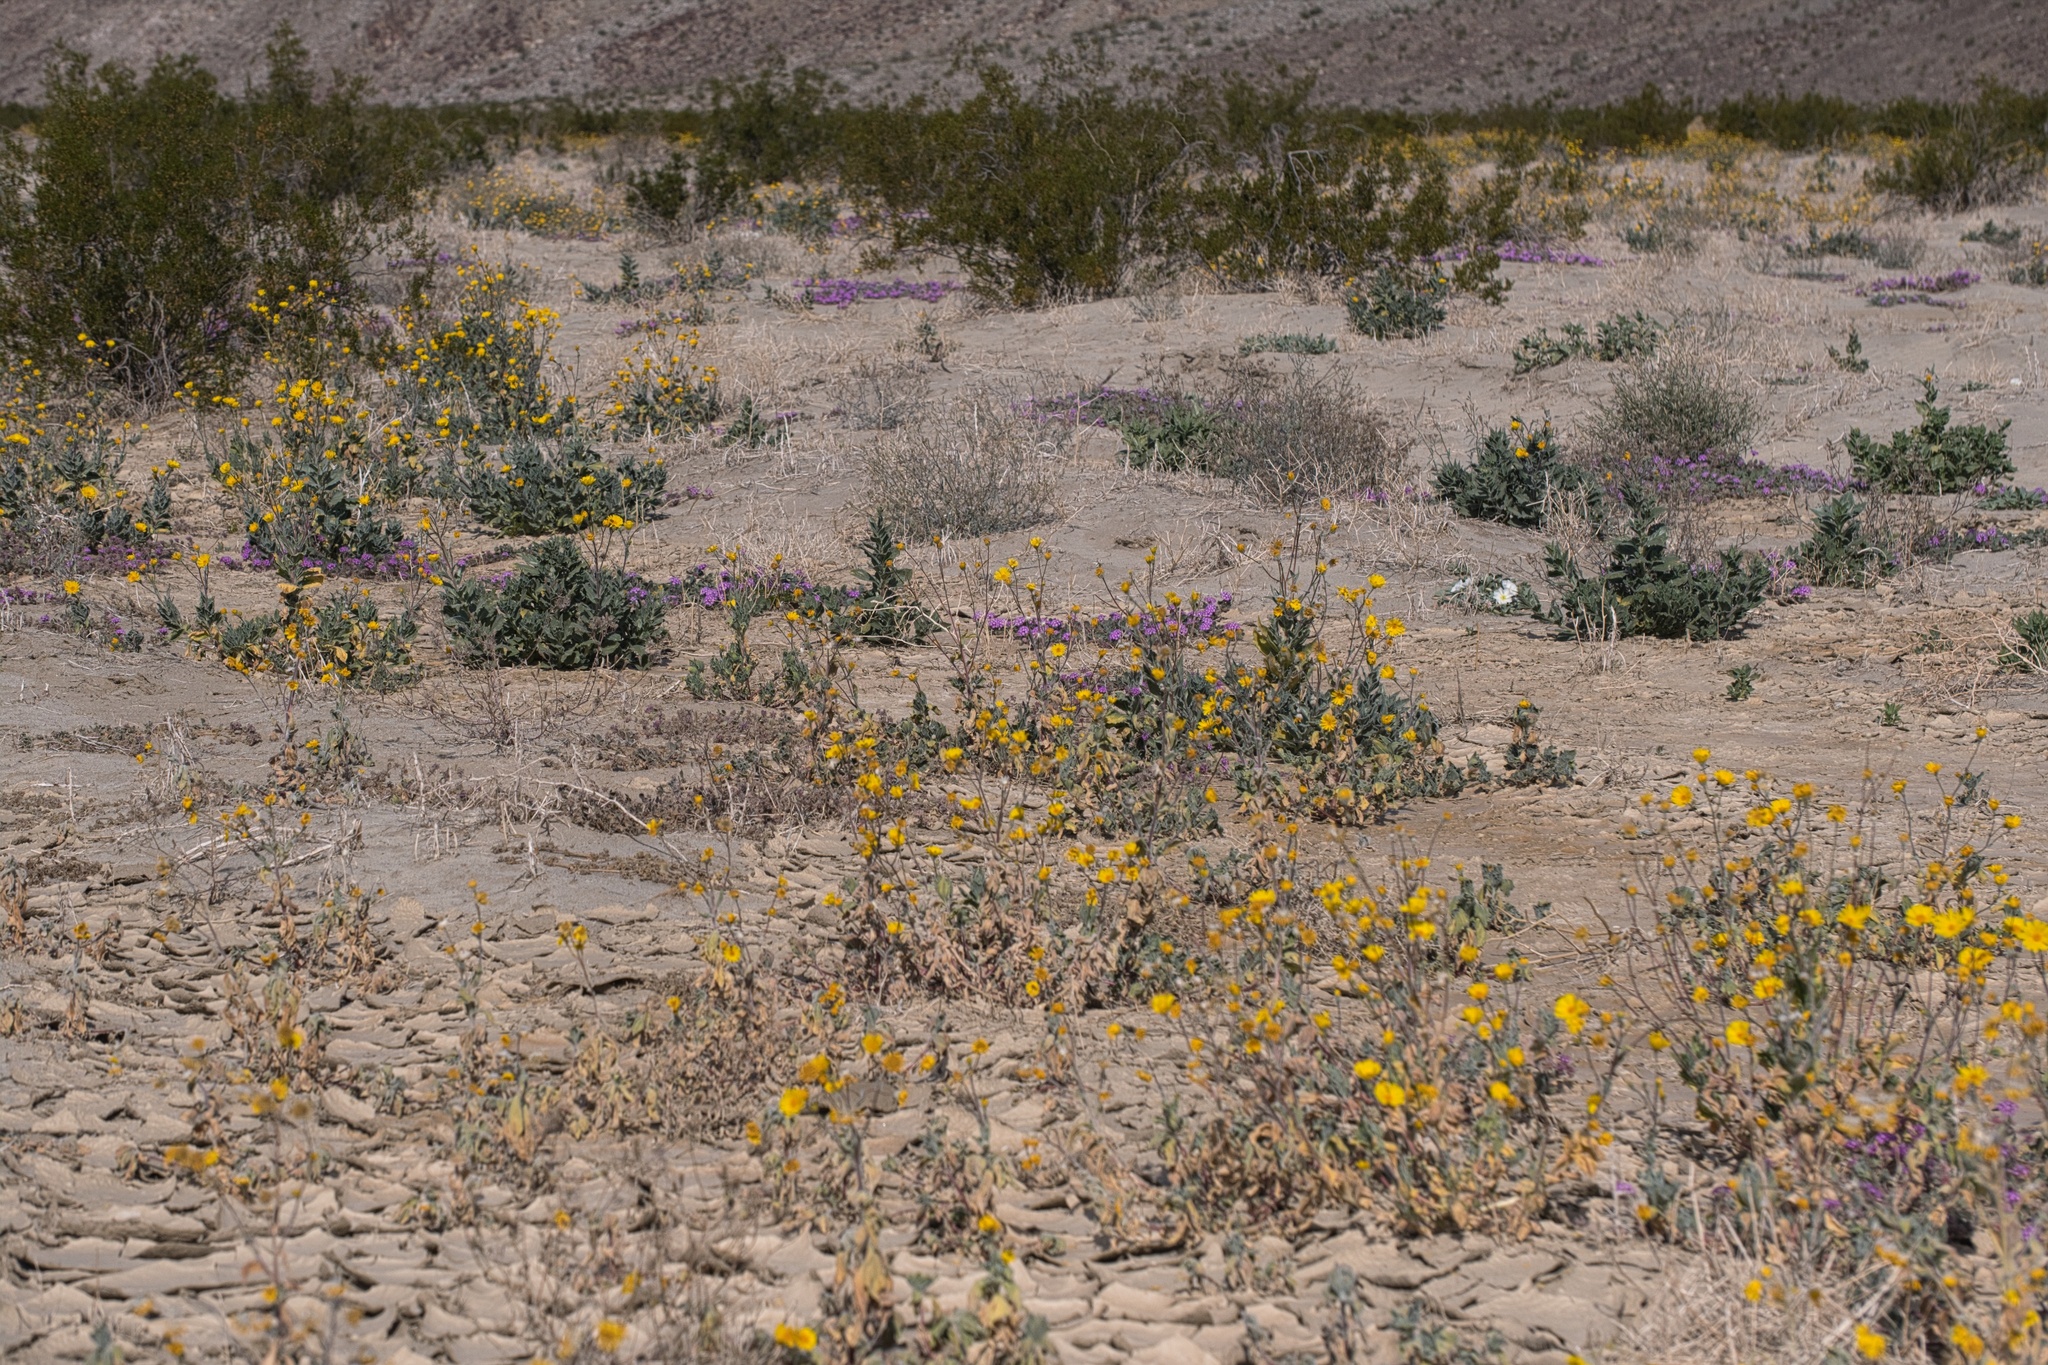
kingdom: Plantae
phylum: Tracheophyta
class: Magnoliopsida
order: Asterales
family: Asteraceae
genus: Geraea
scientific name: Geraea canescens
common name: Desert-gold
